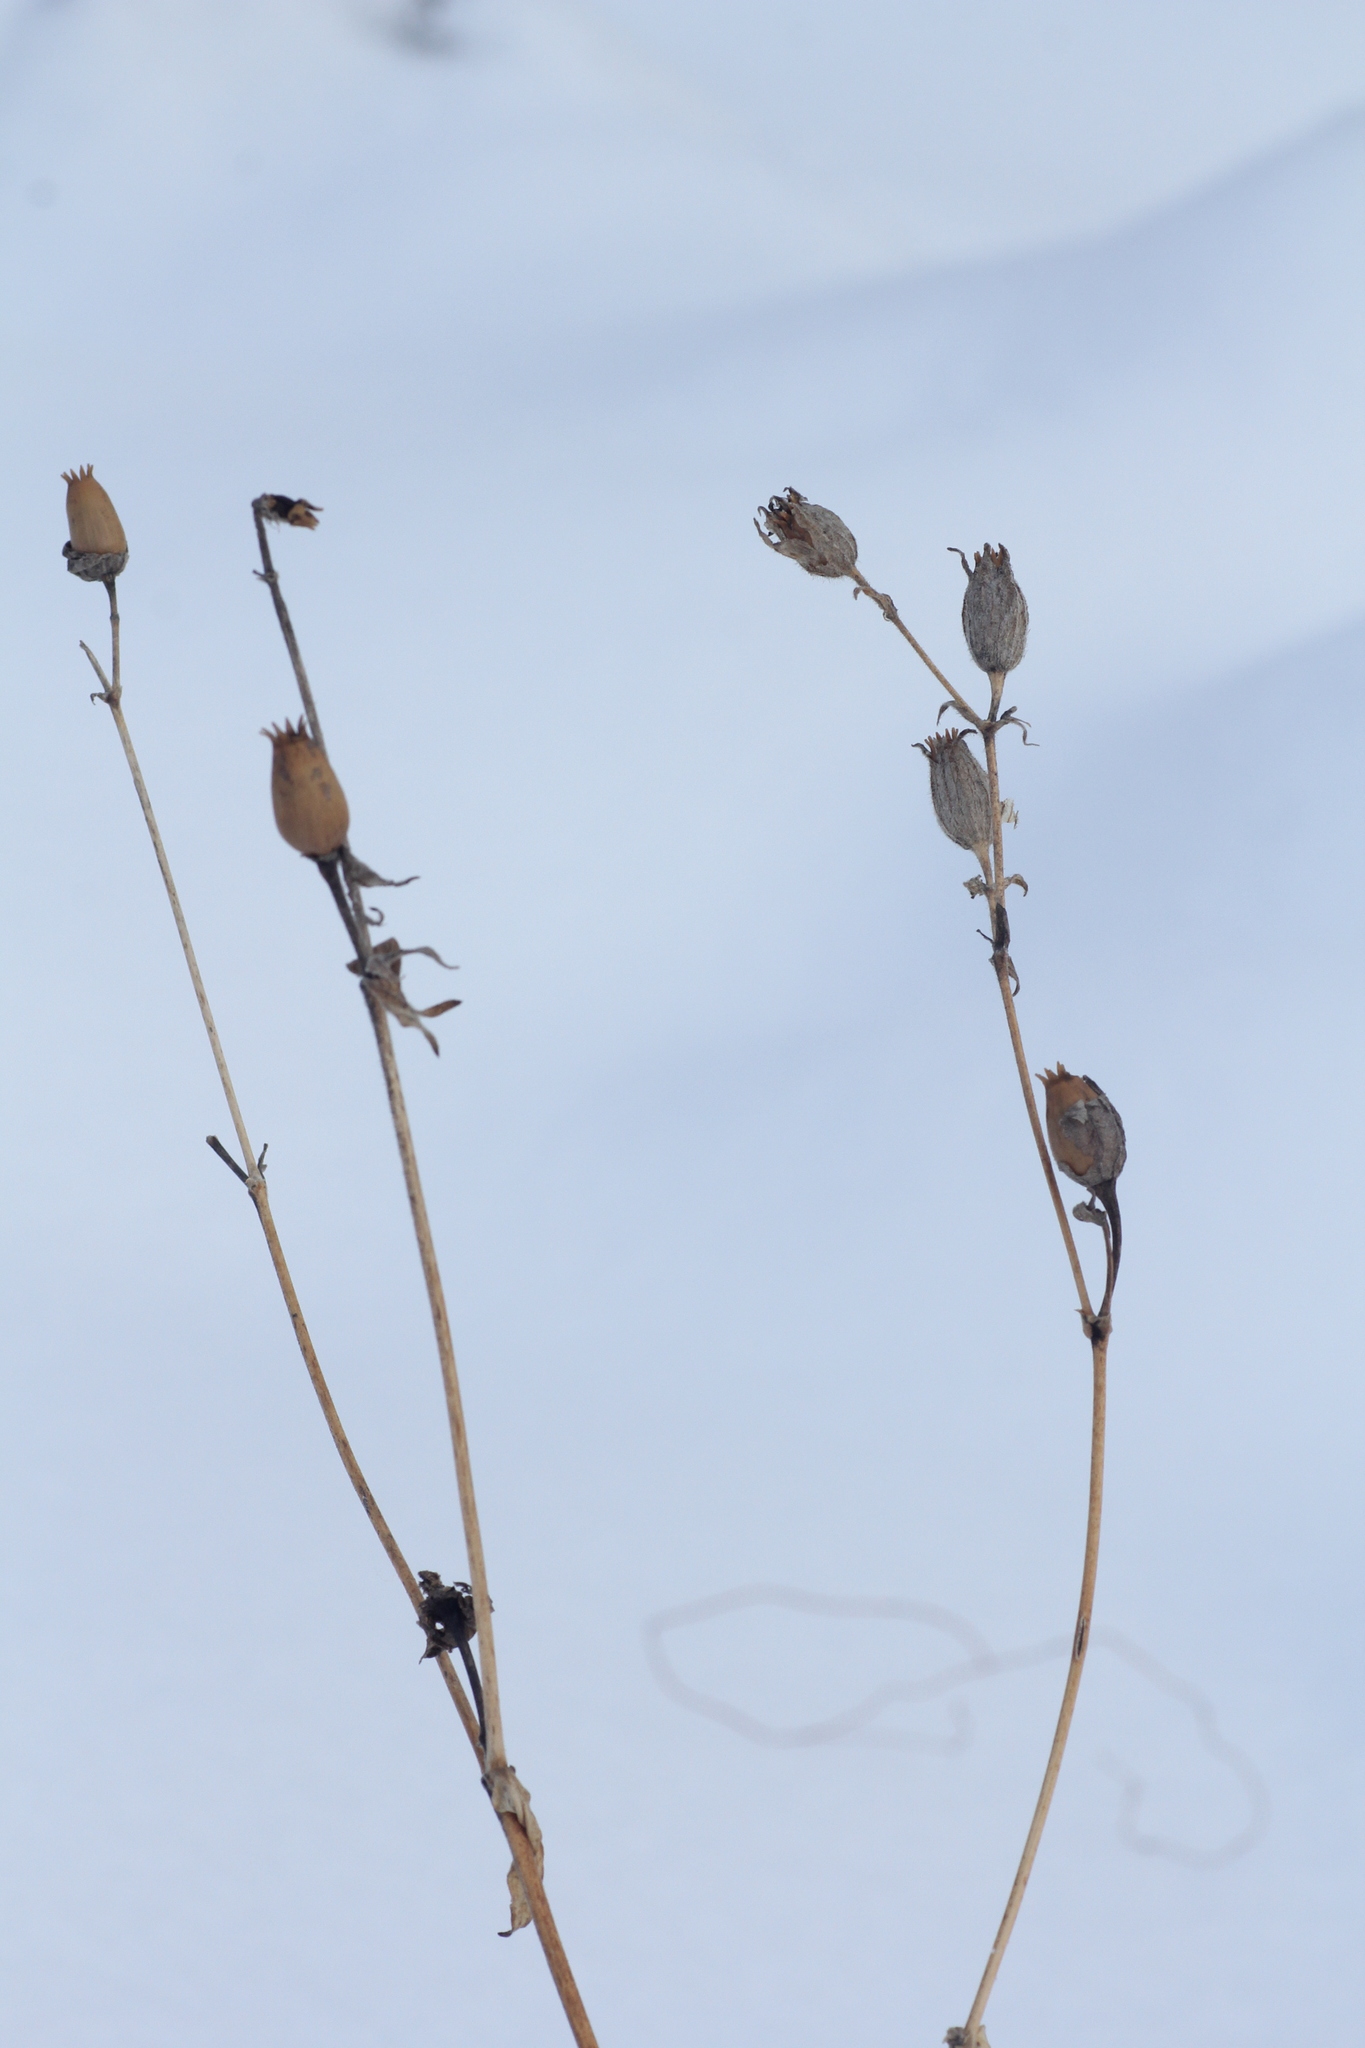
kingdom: Plantae
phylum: Tracheophyta
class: Magnoliopsida
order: Caryophyllales
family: Caryophyllaceae
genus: Silene
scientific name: Silene latifolia
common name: White campion
